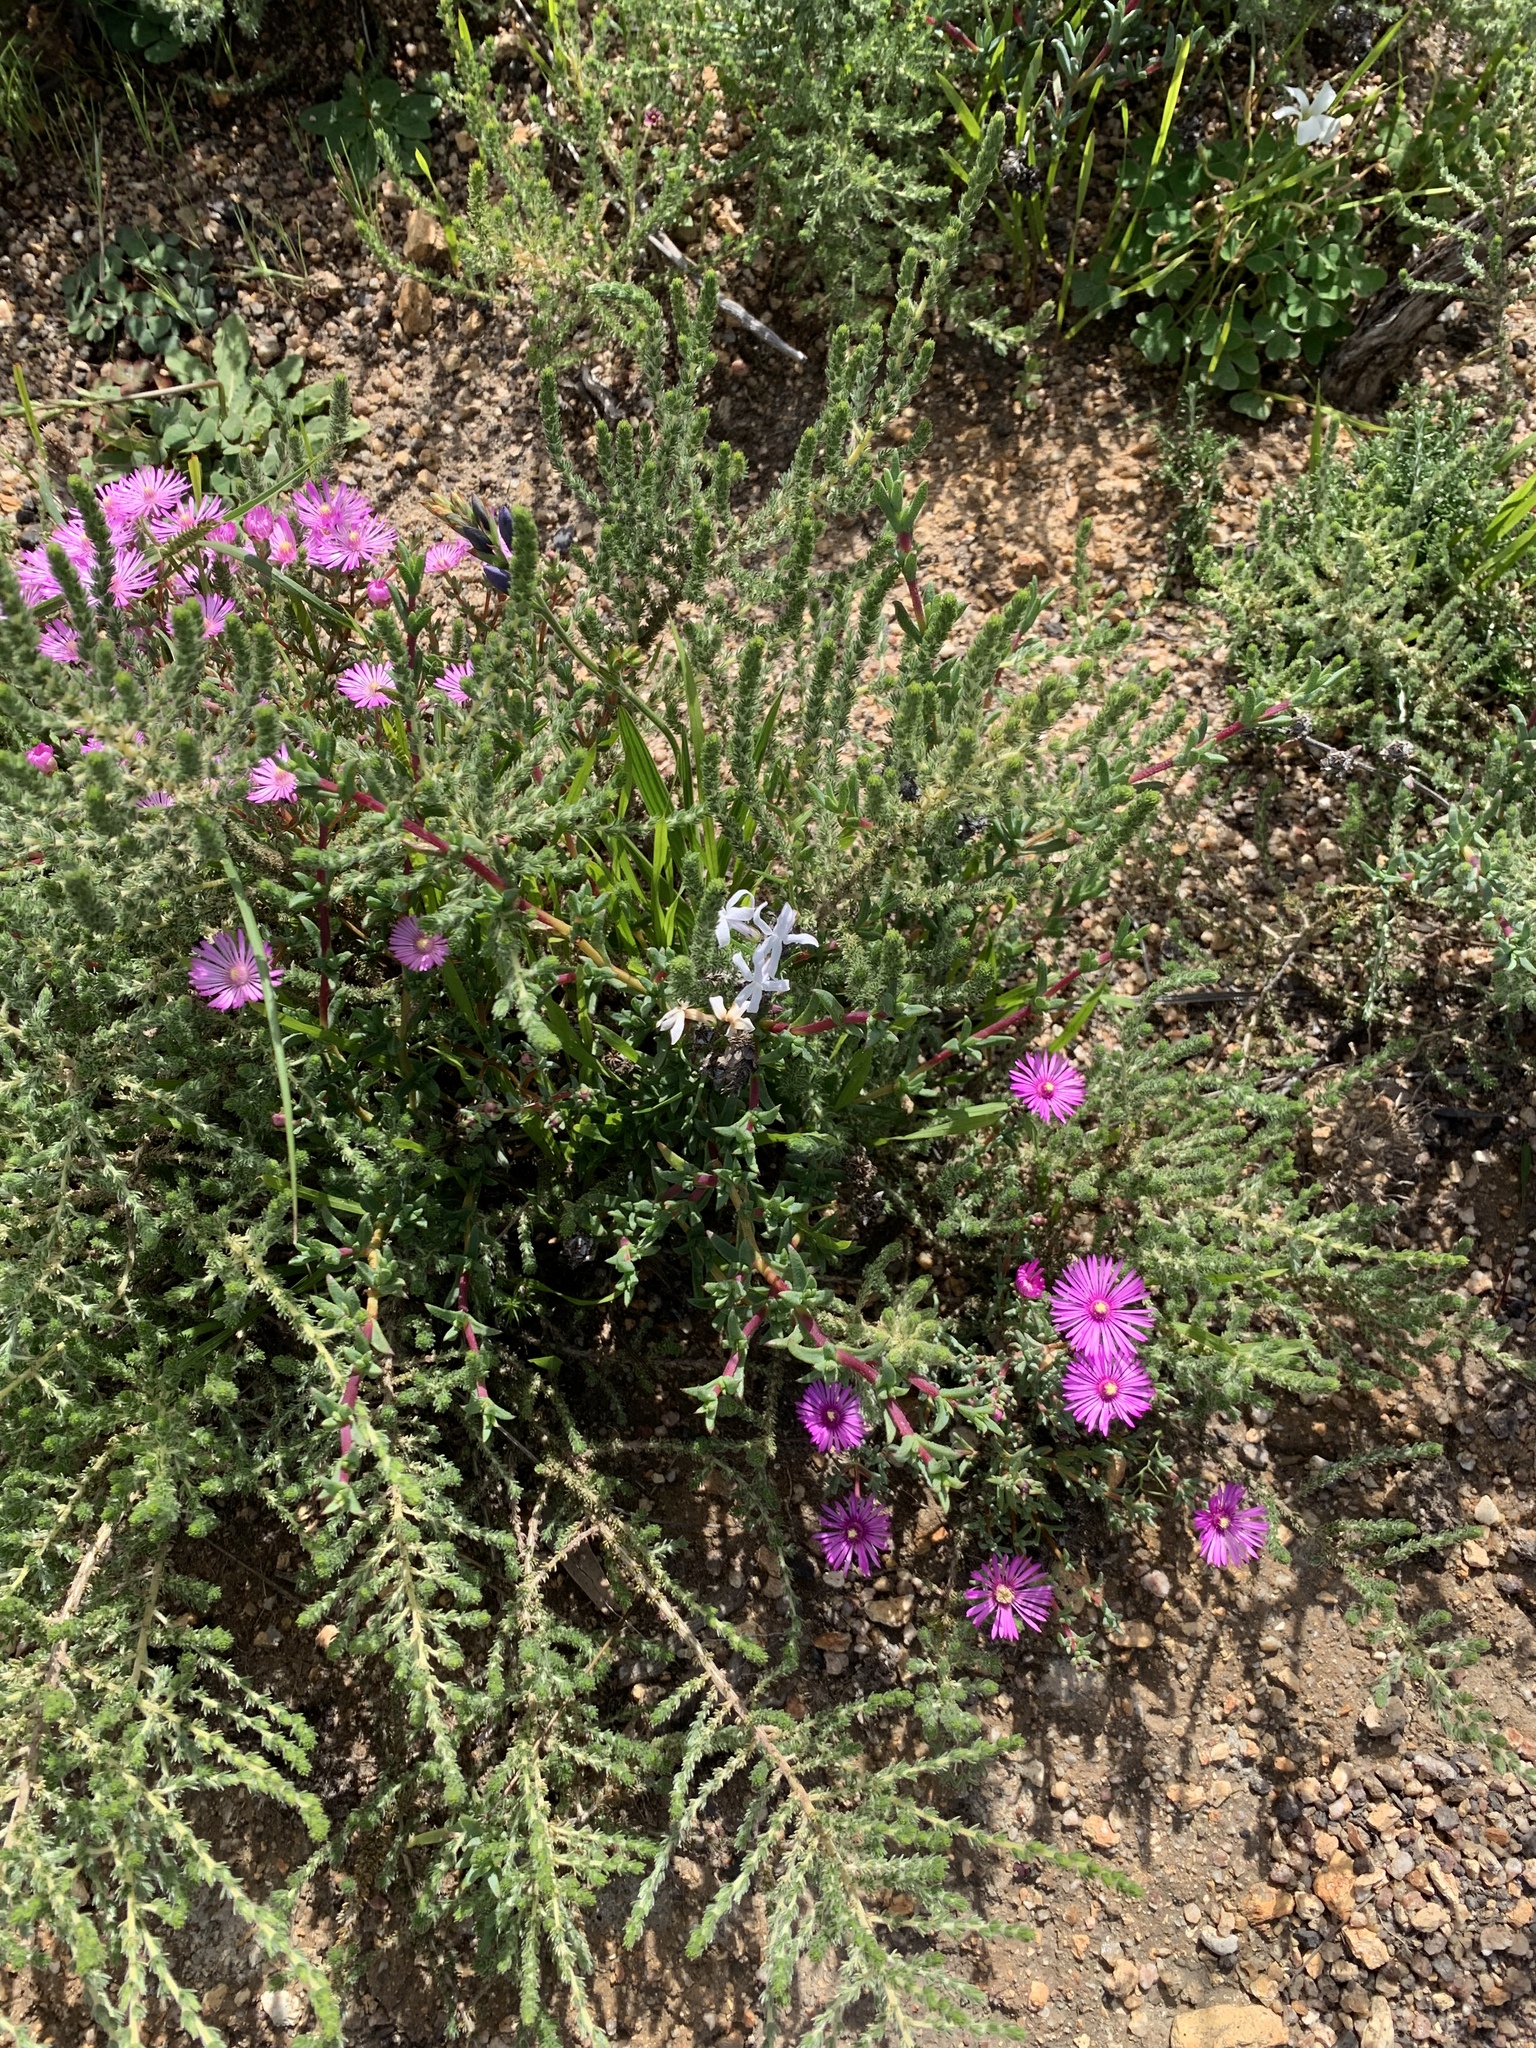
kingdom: Plantae
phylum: Tracheophyta
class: Magnoliopsida
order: Caryophyllales
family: Aizoaceae
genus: Lampranthus
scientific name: Lampranthus elegans
